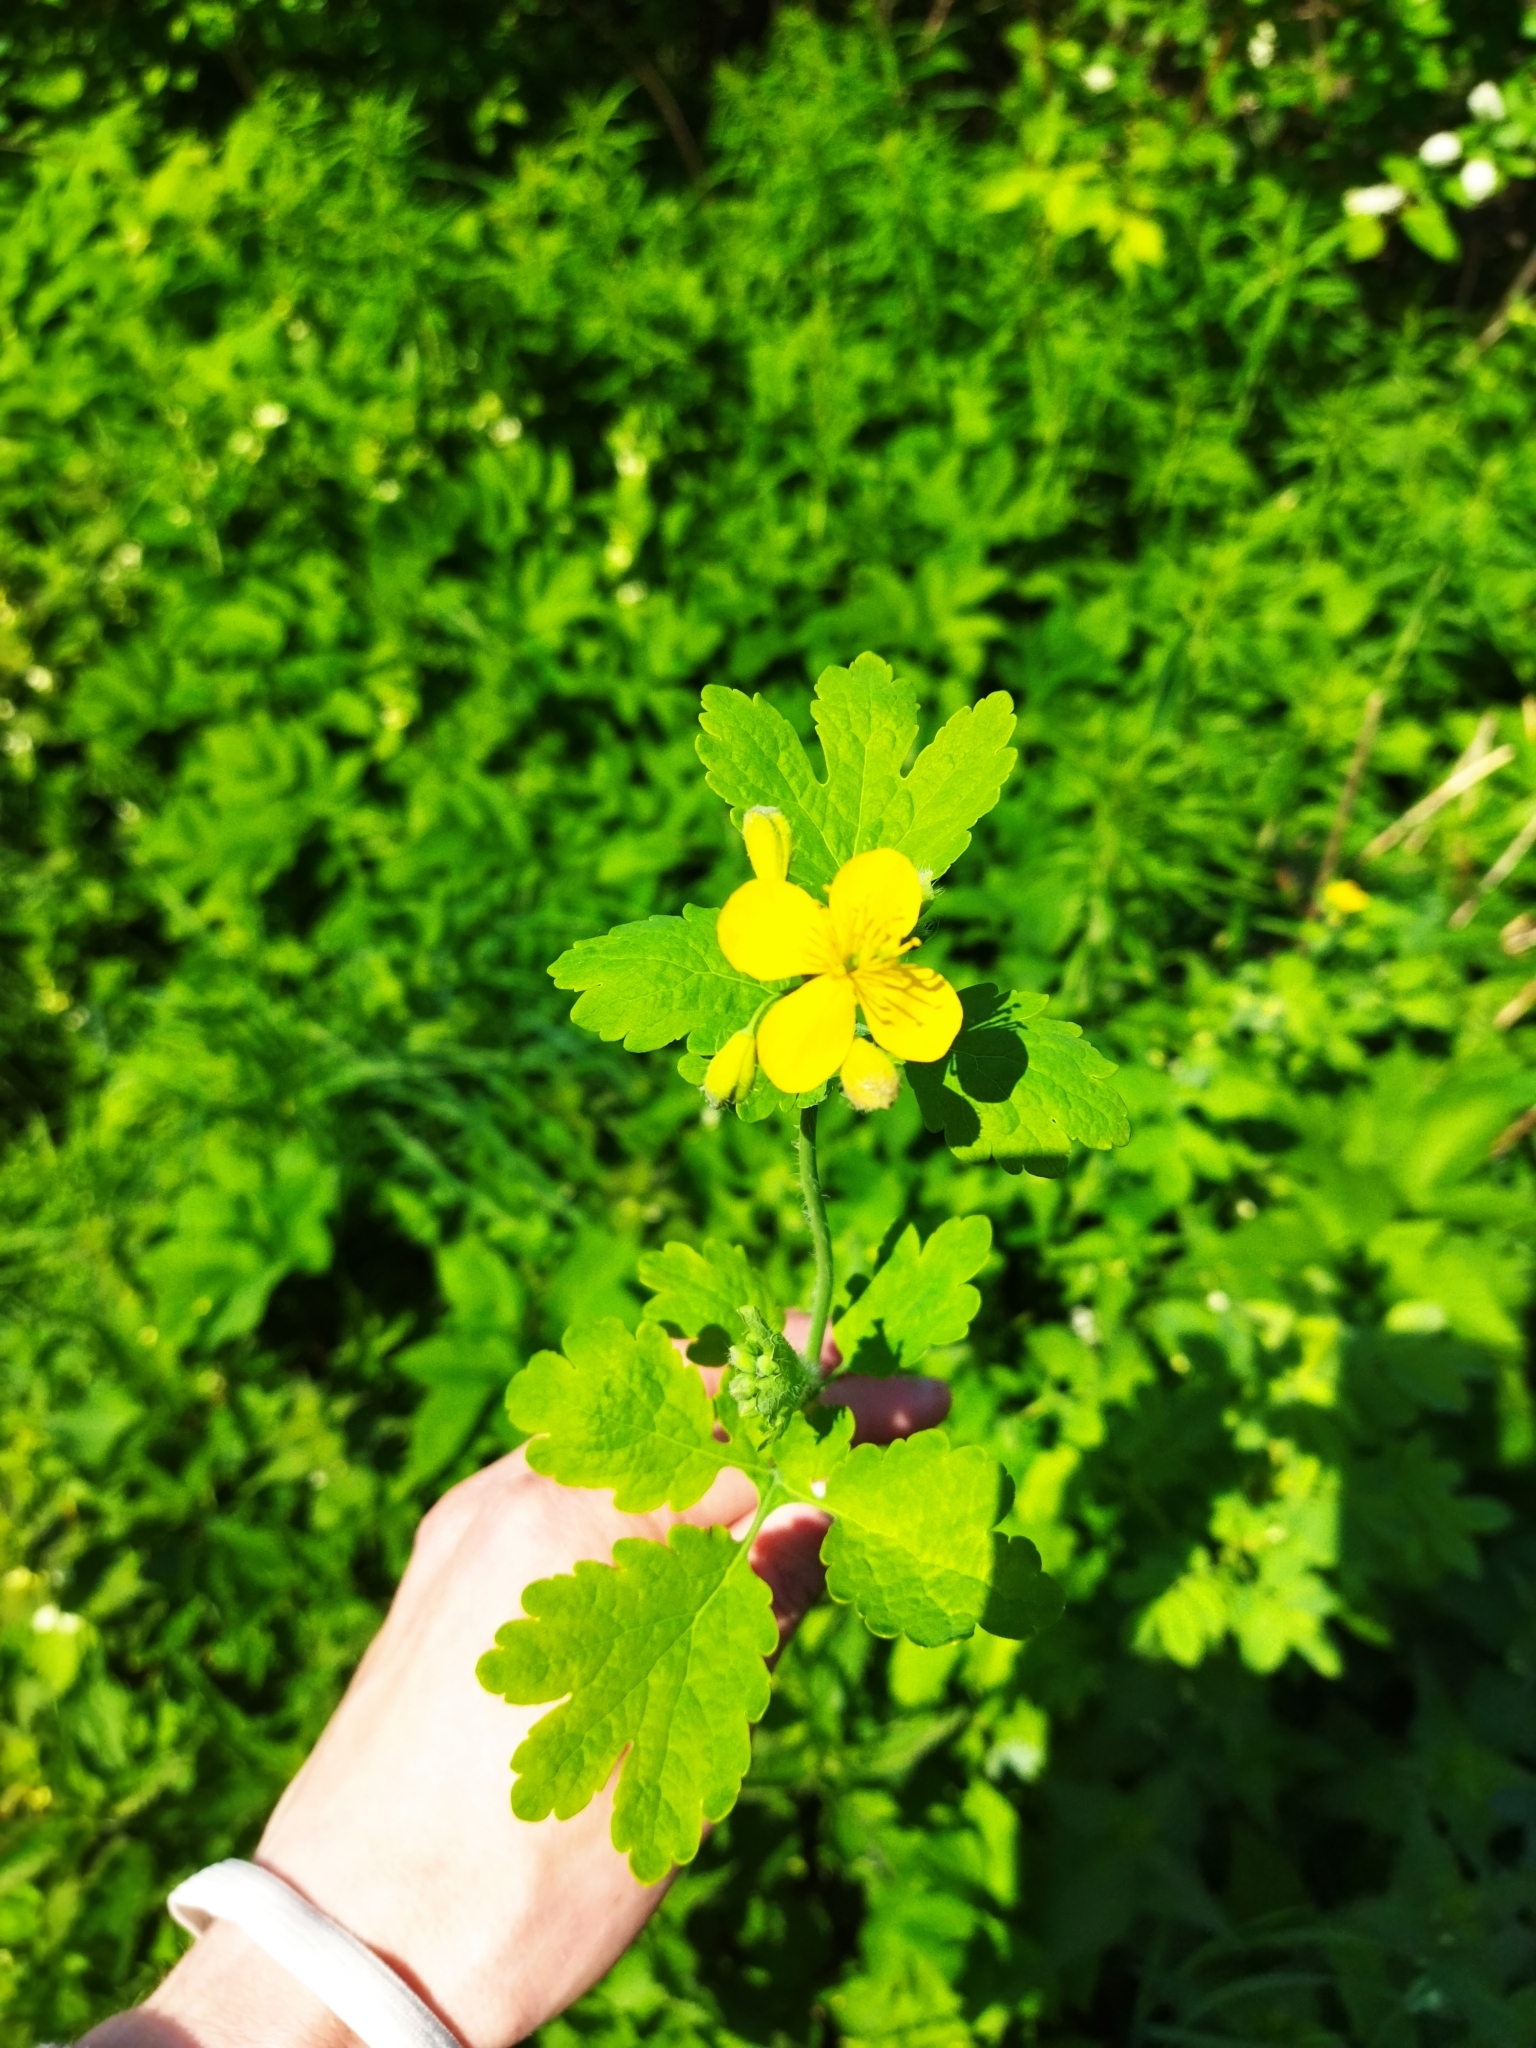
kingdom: Plantae
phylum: Tracheophyta
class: Magnoliopsida
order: Ranunculales
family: Papaveraceae
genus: Chelidonium
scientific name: Chelidonium majus
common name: Greater celandine
